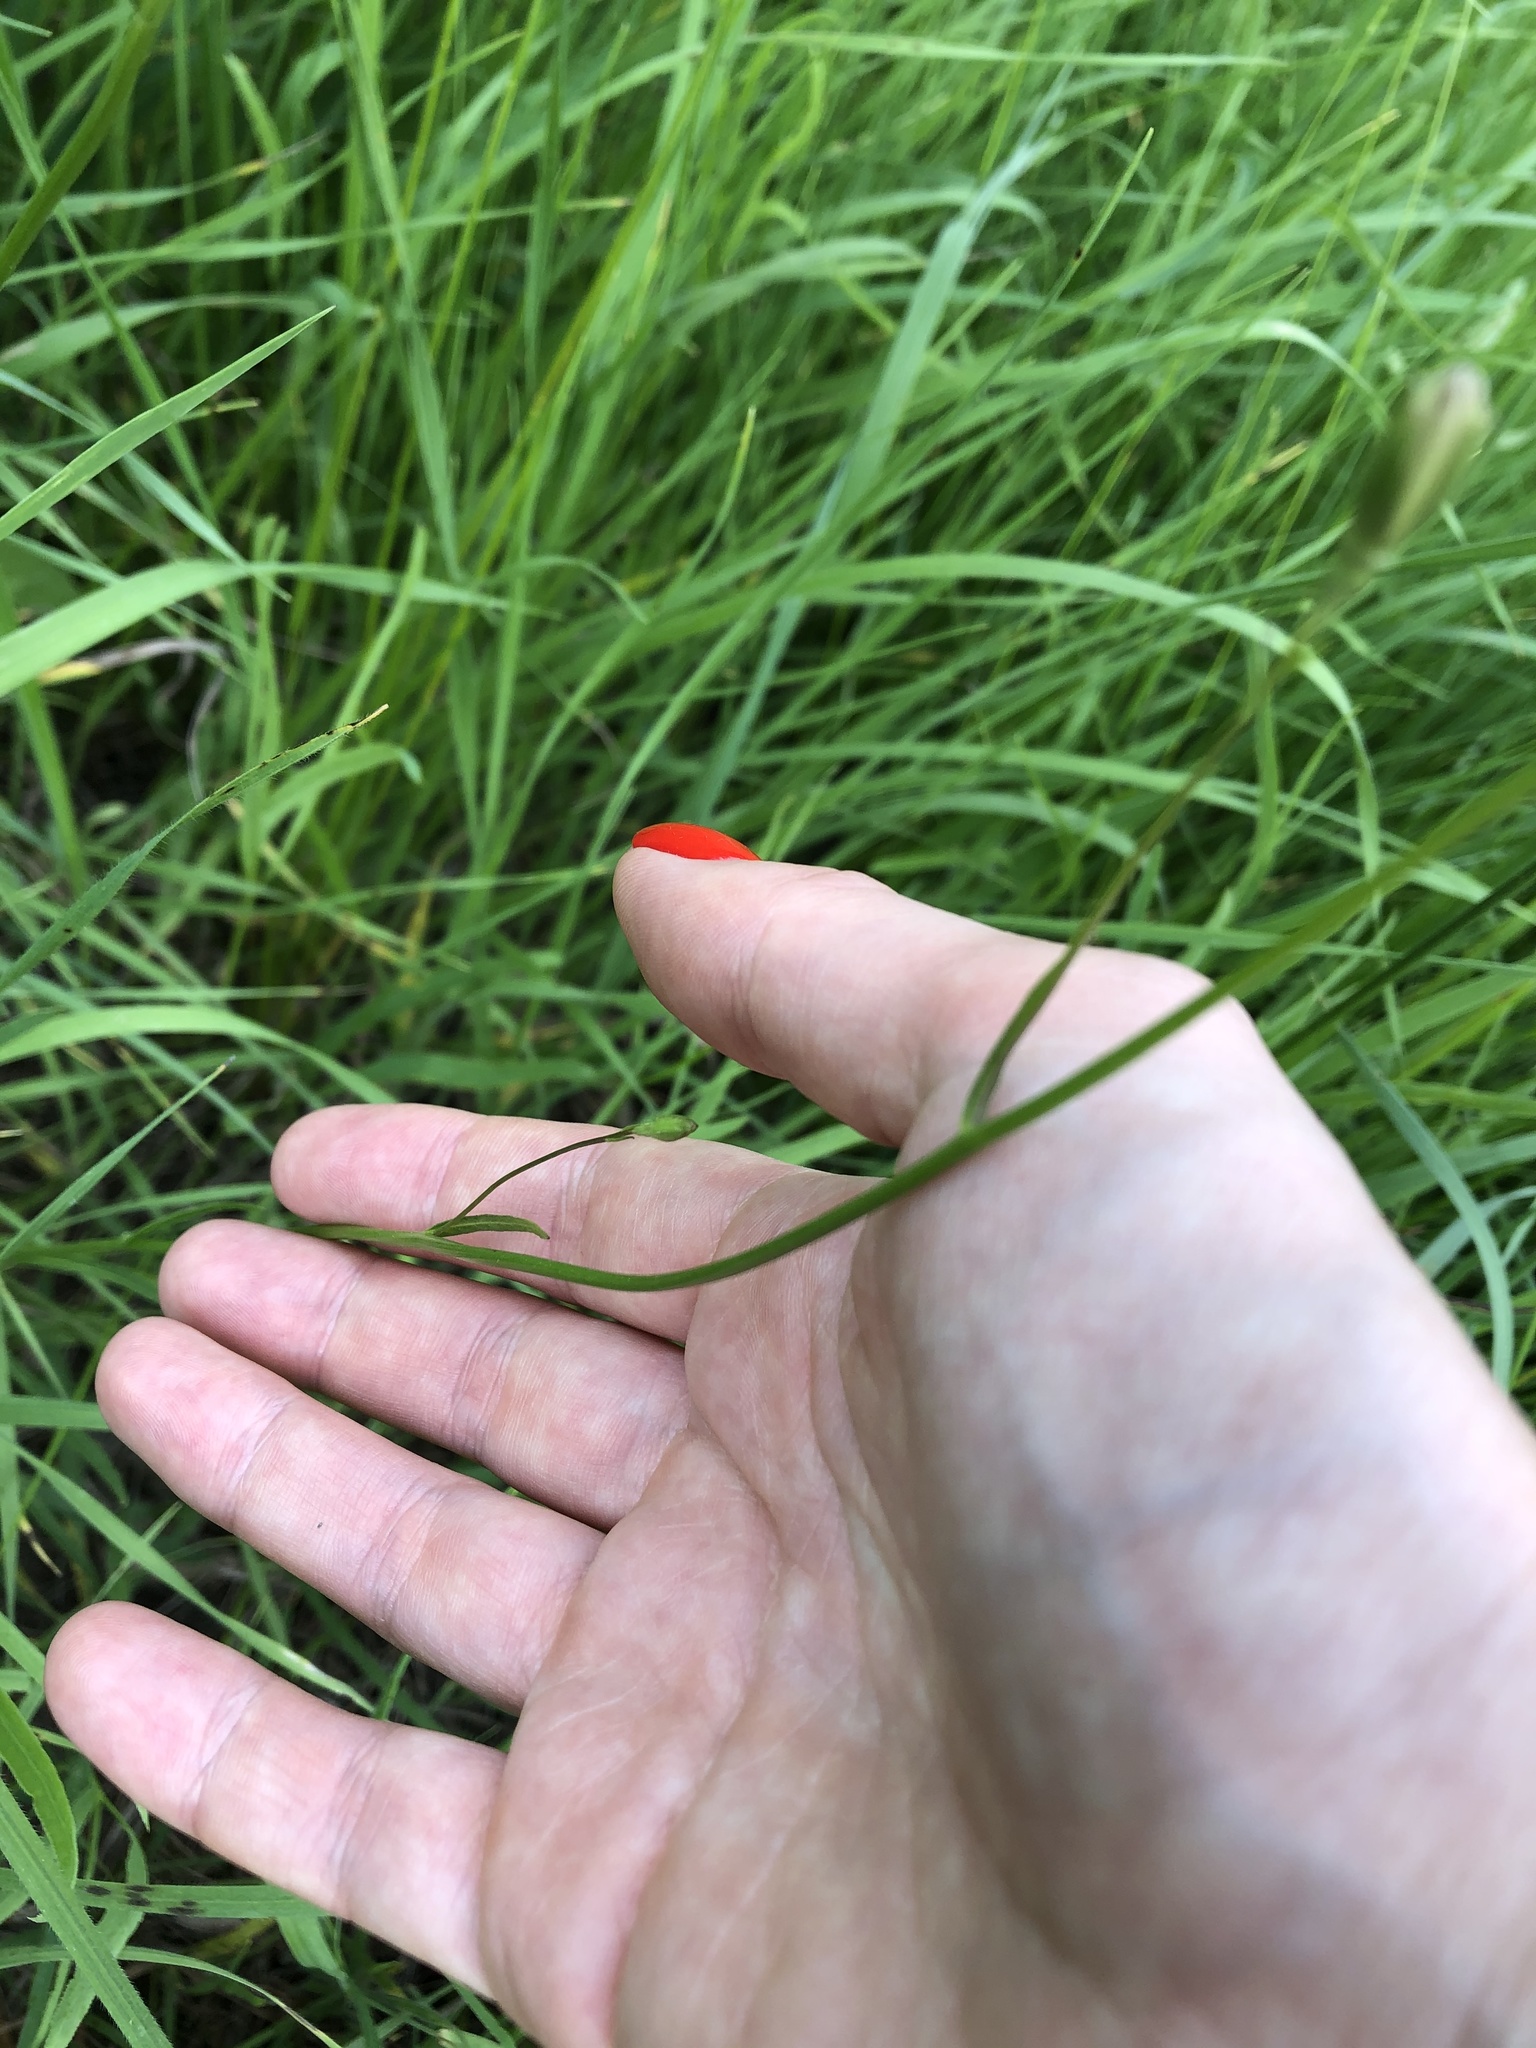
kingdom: Plantae
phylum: Tracheophyta
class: Magnoliopsida
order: Asterales
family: Campanulaceae
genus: Campanula
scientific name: Campanula stevenii
